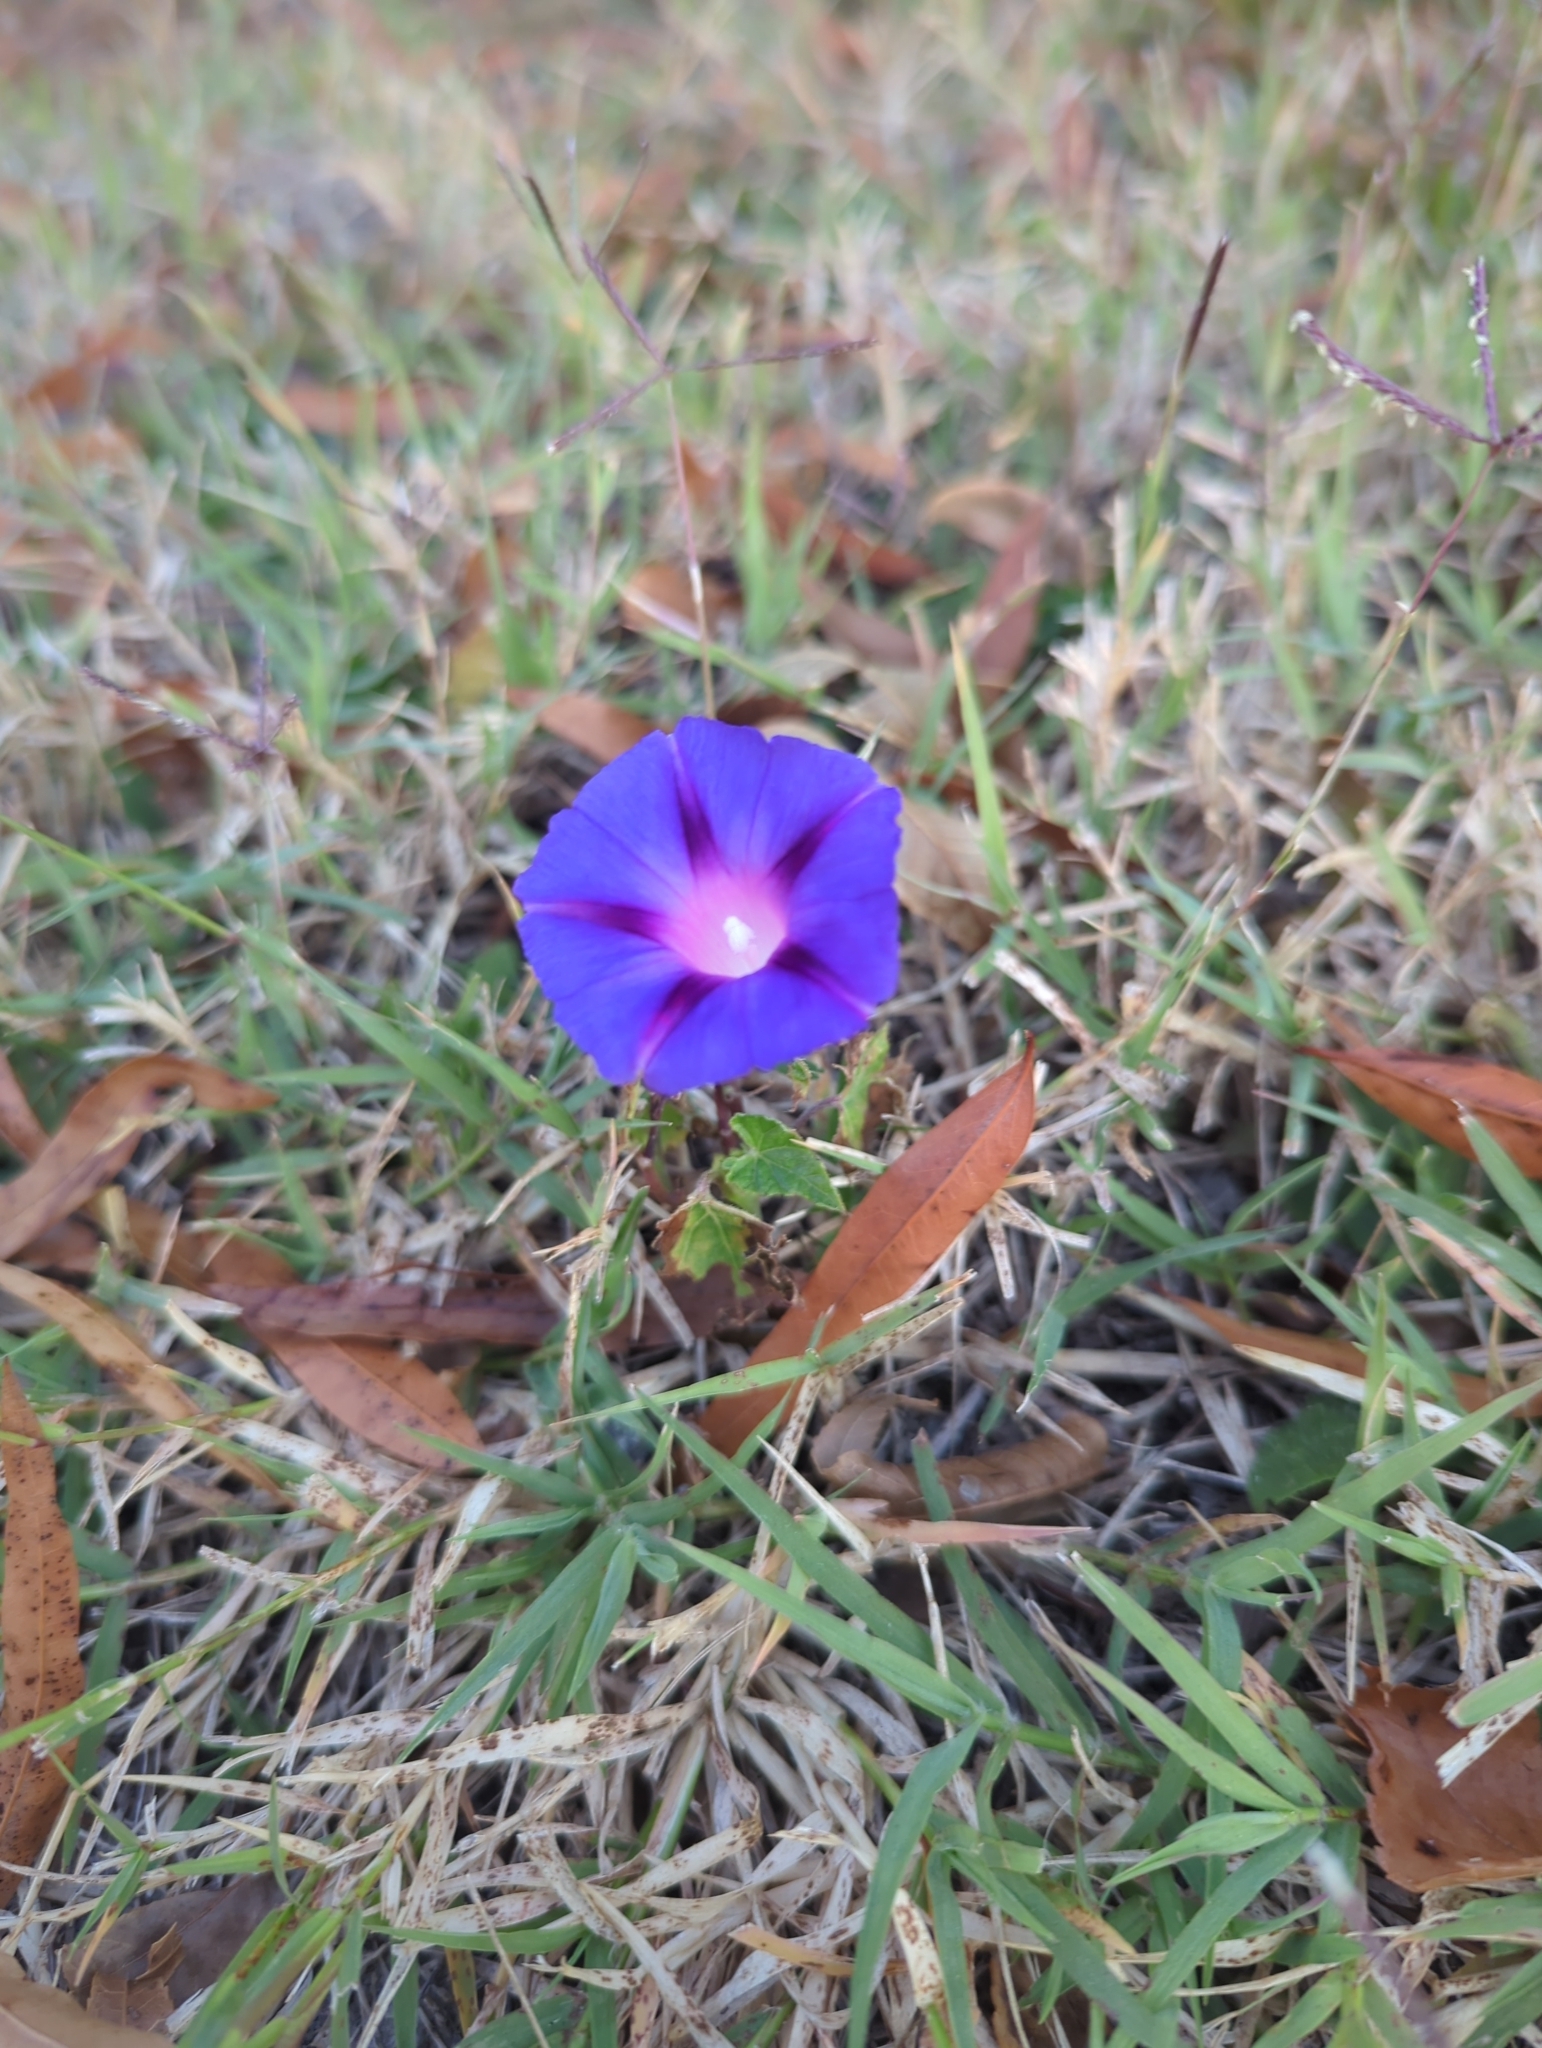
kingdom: Plantae
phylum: Tracheophyta
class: Magnoliopsida
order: Solanales
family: Convolvulaceae
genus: Ipomoea
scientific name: Ipomoea purpurea
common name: Common morning-glory
